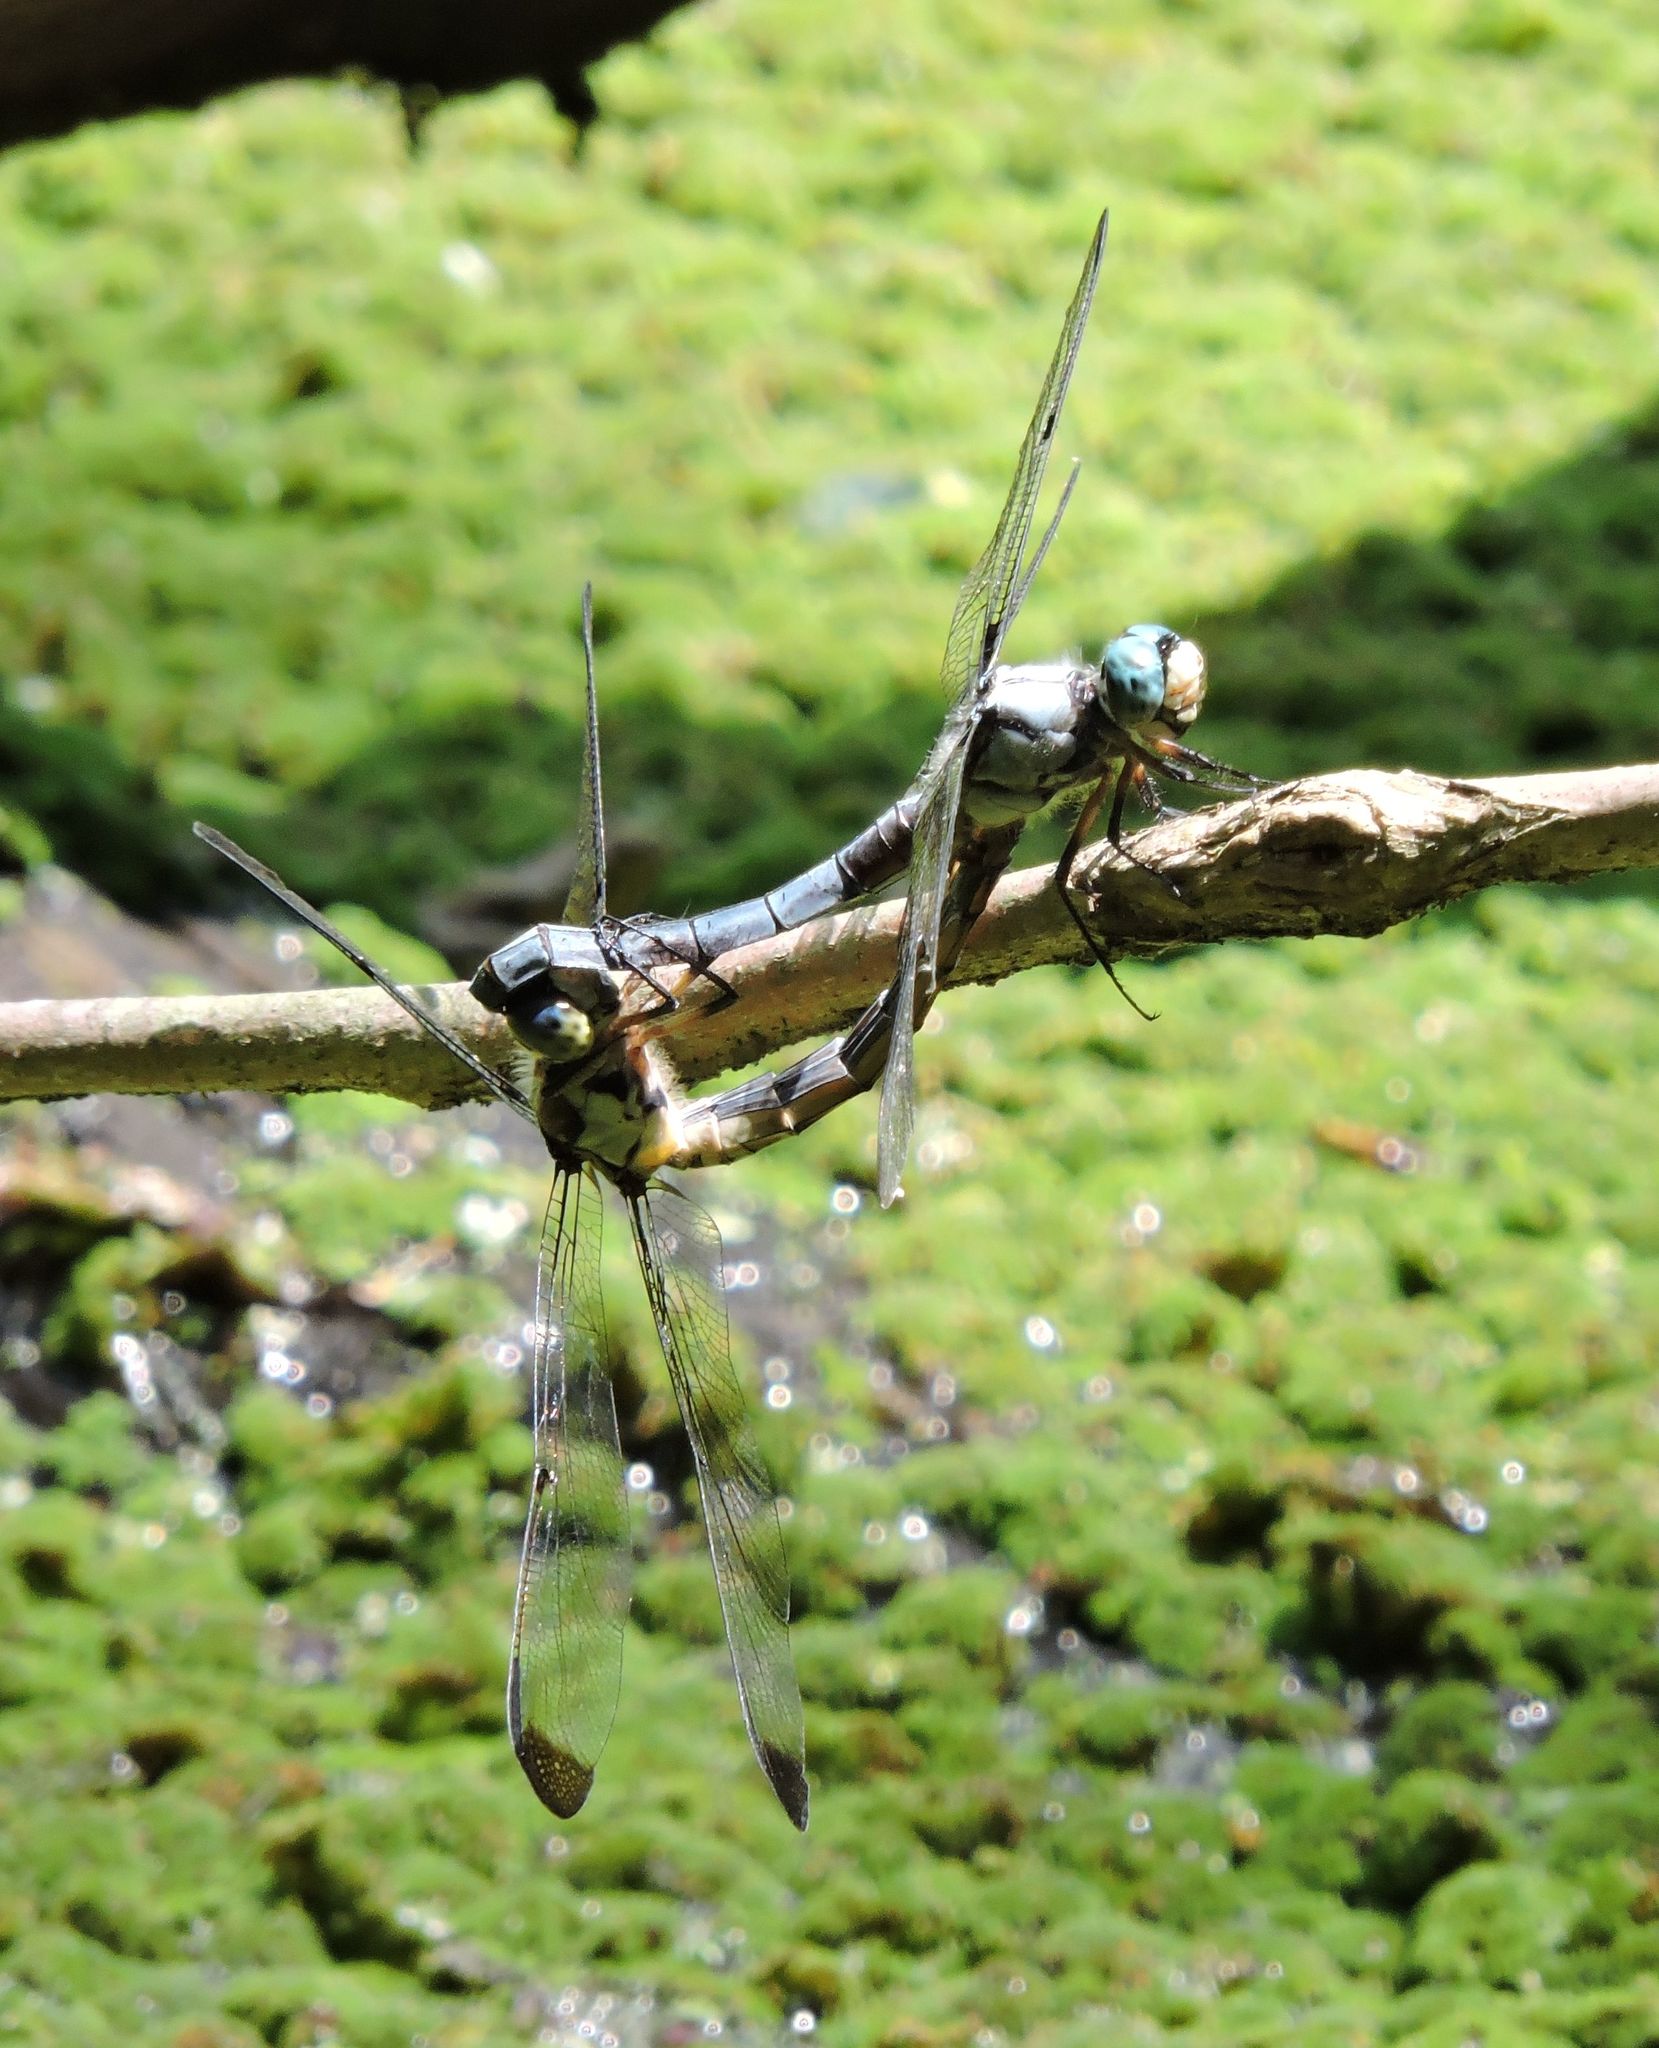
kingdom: Animalia
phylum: Arthropoda
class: Insecta
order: Odonata
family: Libellulidae
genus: Libellula
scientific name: Libellula vibrans
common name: Great blue skimmer
